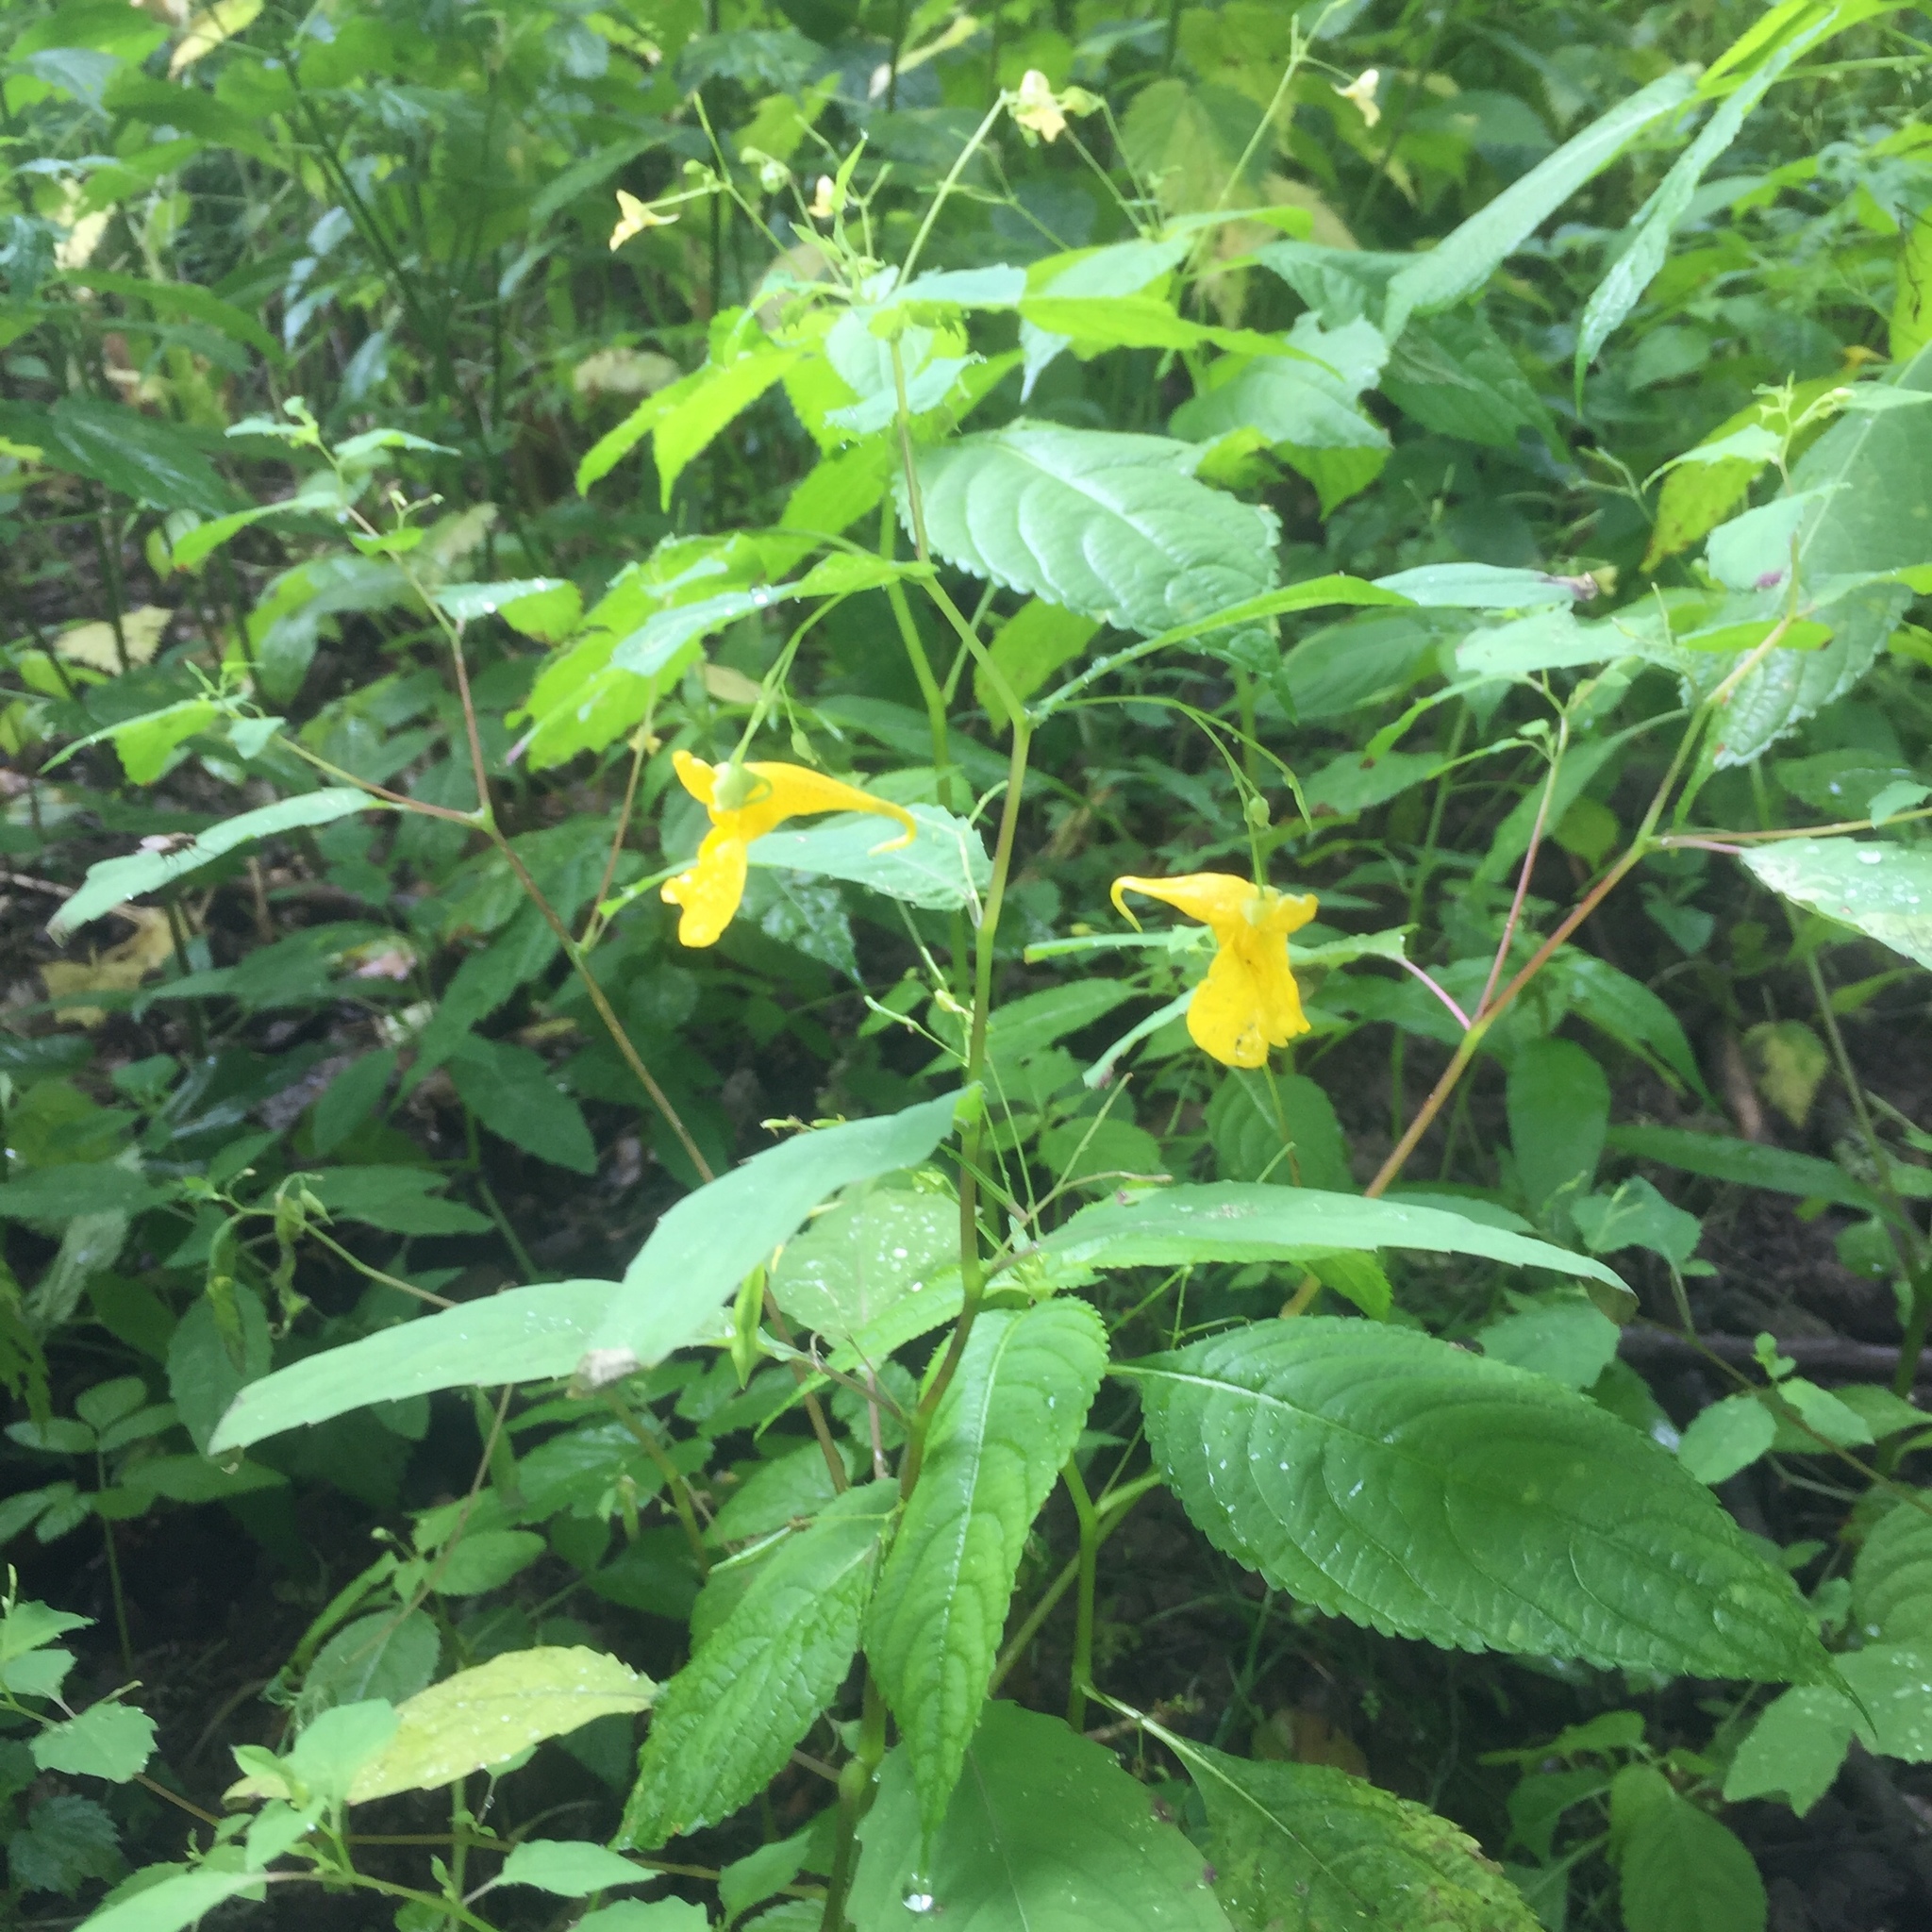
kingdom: Plantae
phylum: Tracheophyta
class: Magnoliopsida
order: Ericales
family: Balsaminaceae
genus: Impatiens
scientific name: Impatiens noli-tangere
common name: Touch-me-not balsam
